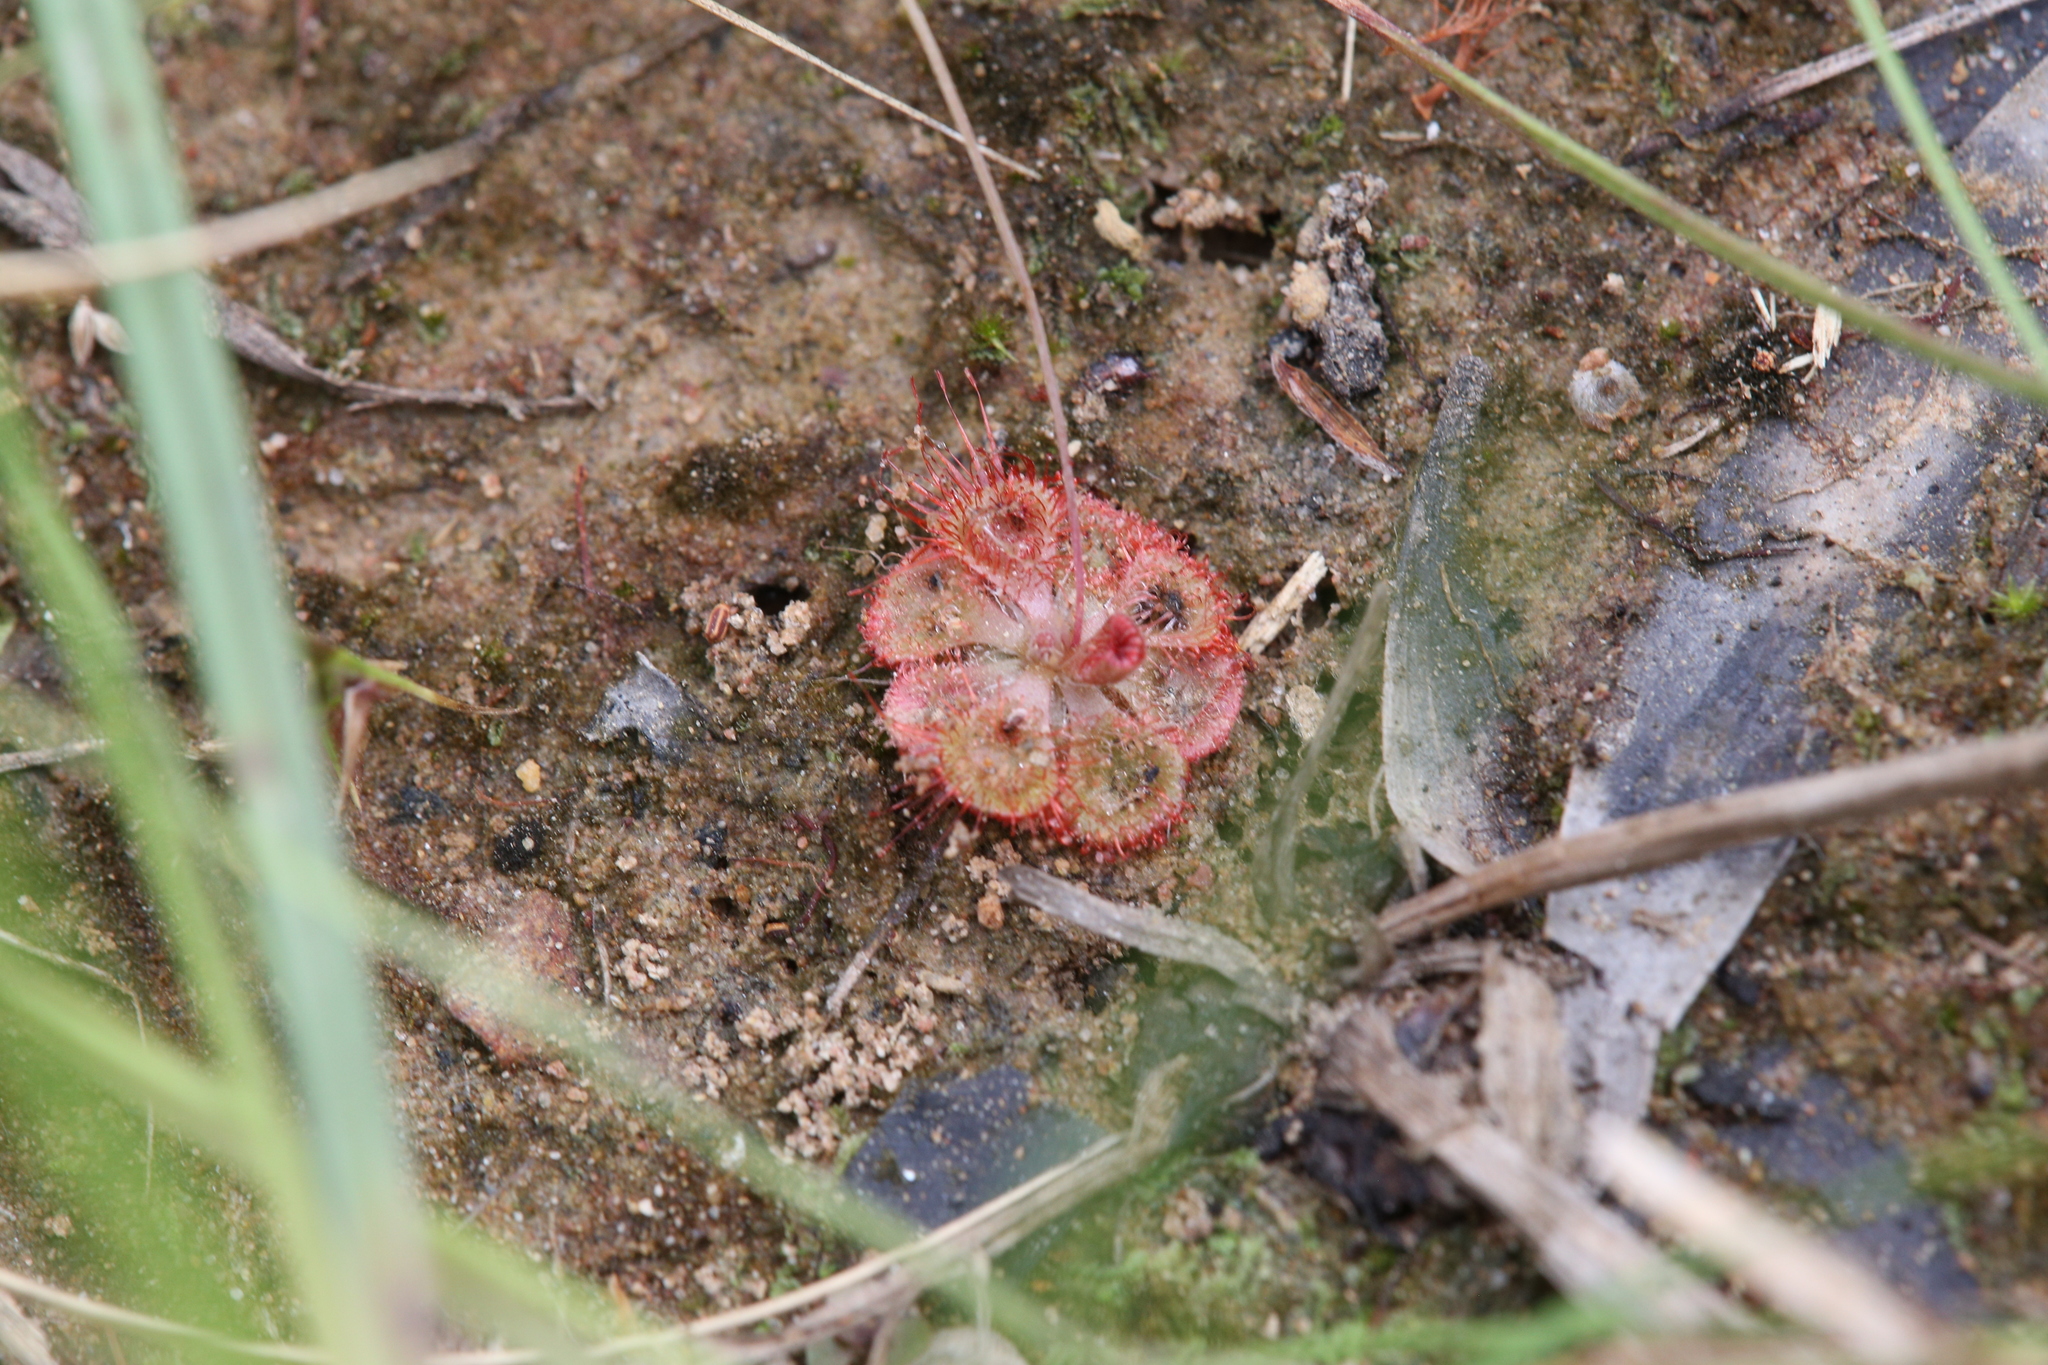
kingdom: Plantae
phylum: Tracheophyta
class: Magnoliopsida
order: Caryophyllales
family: Droseraceae
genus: Drosera
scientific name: Drosera spatulata
